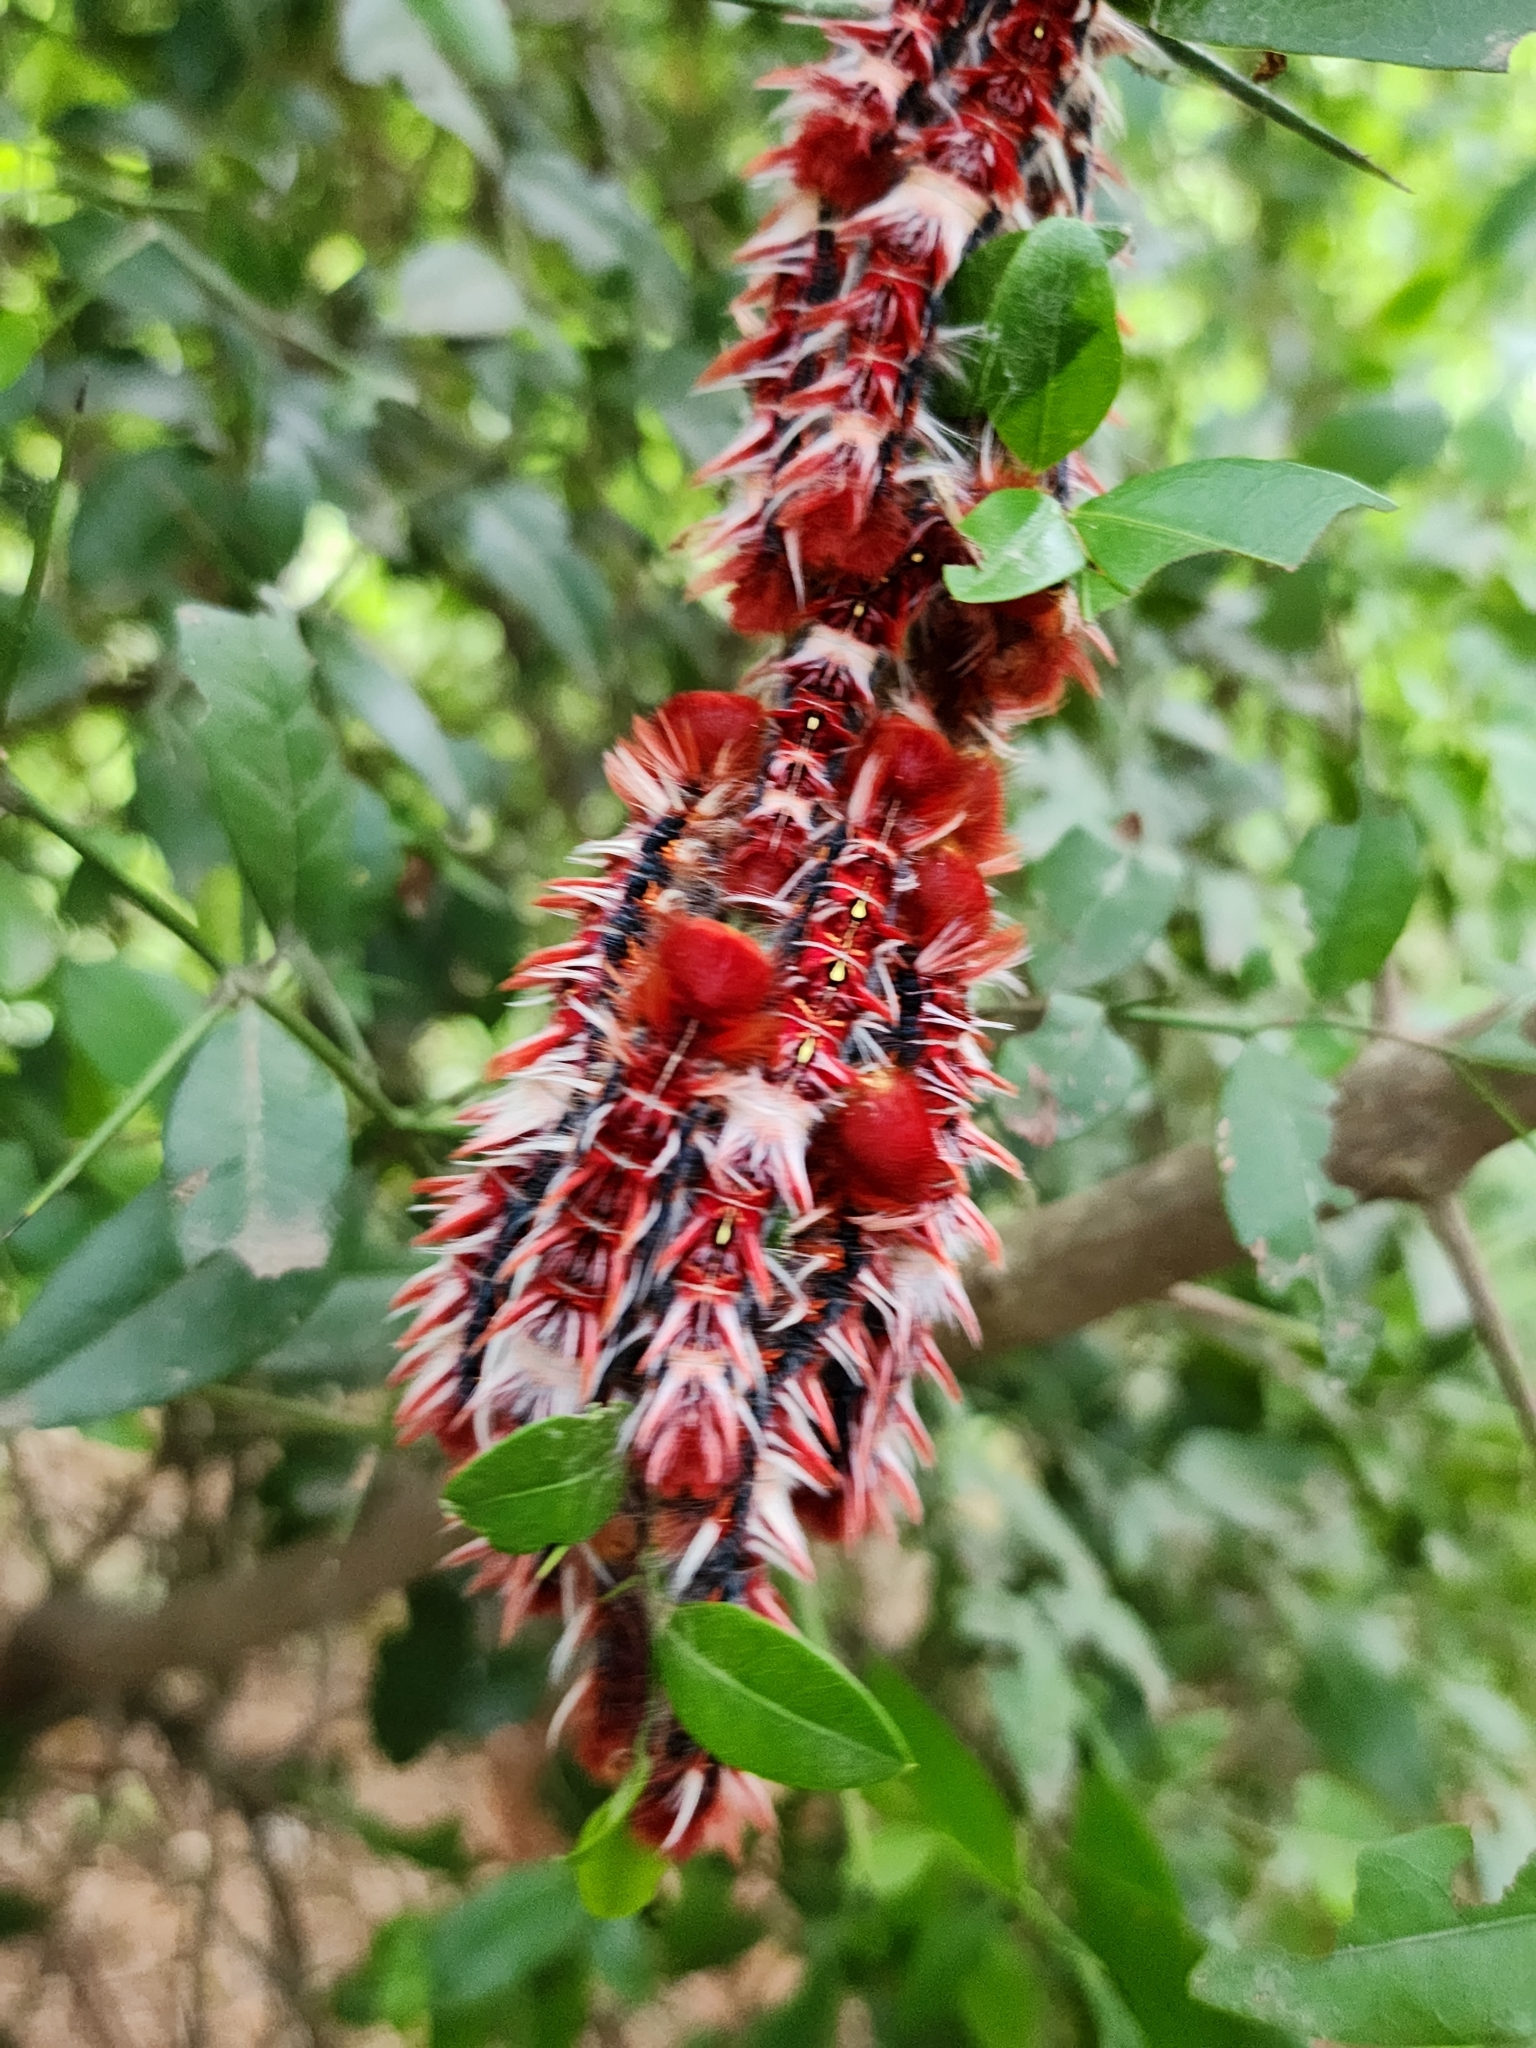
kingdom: Animalia
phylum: Arthropoda
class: Insecta
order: Lepidoptera
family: Nymphalidae
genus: Morpho
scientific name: Morpho epistrophus
